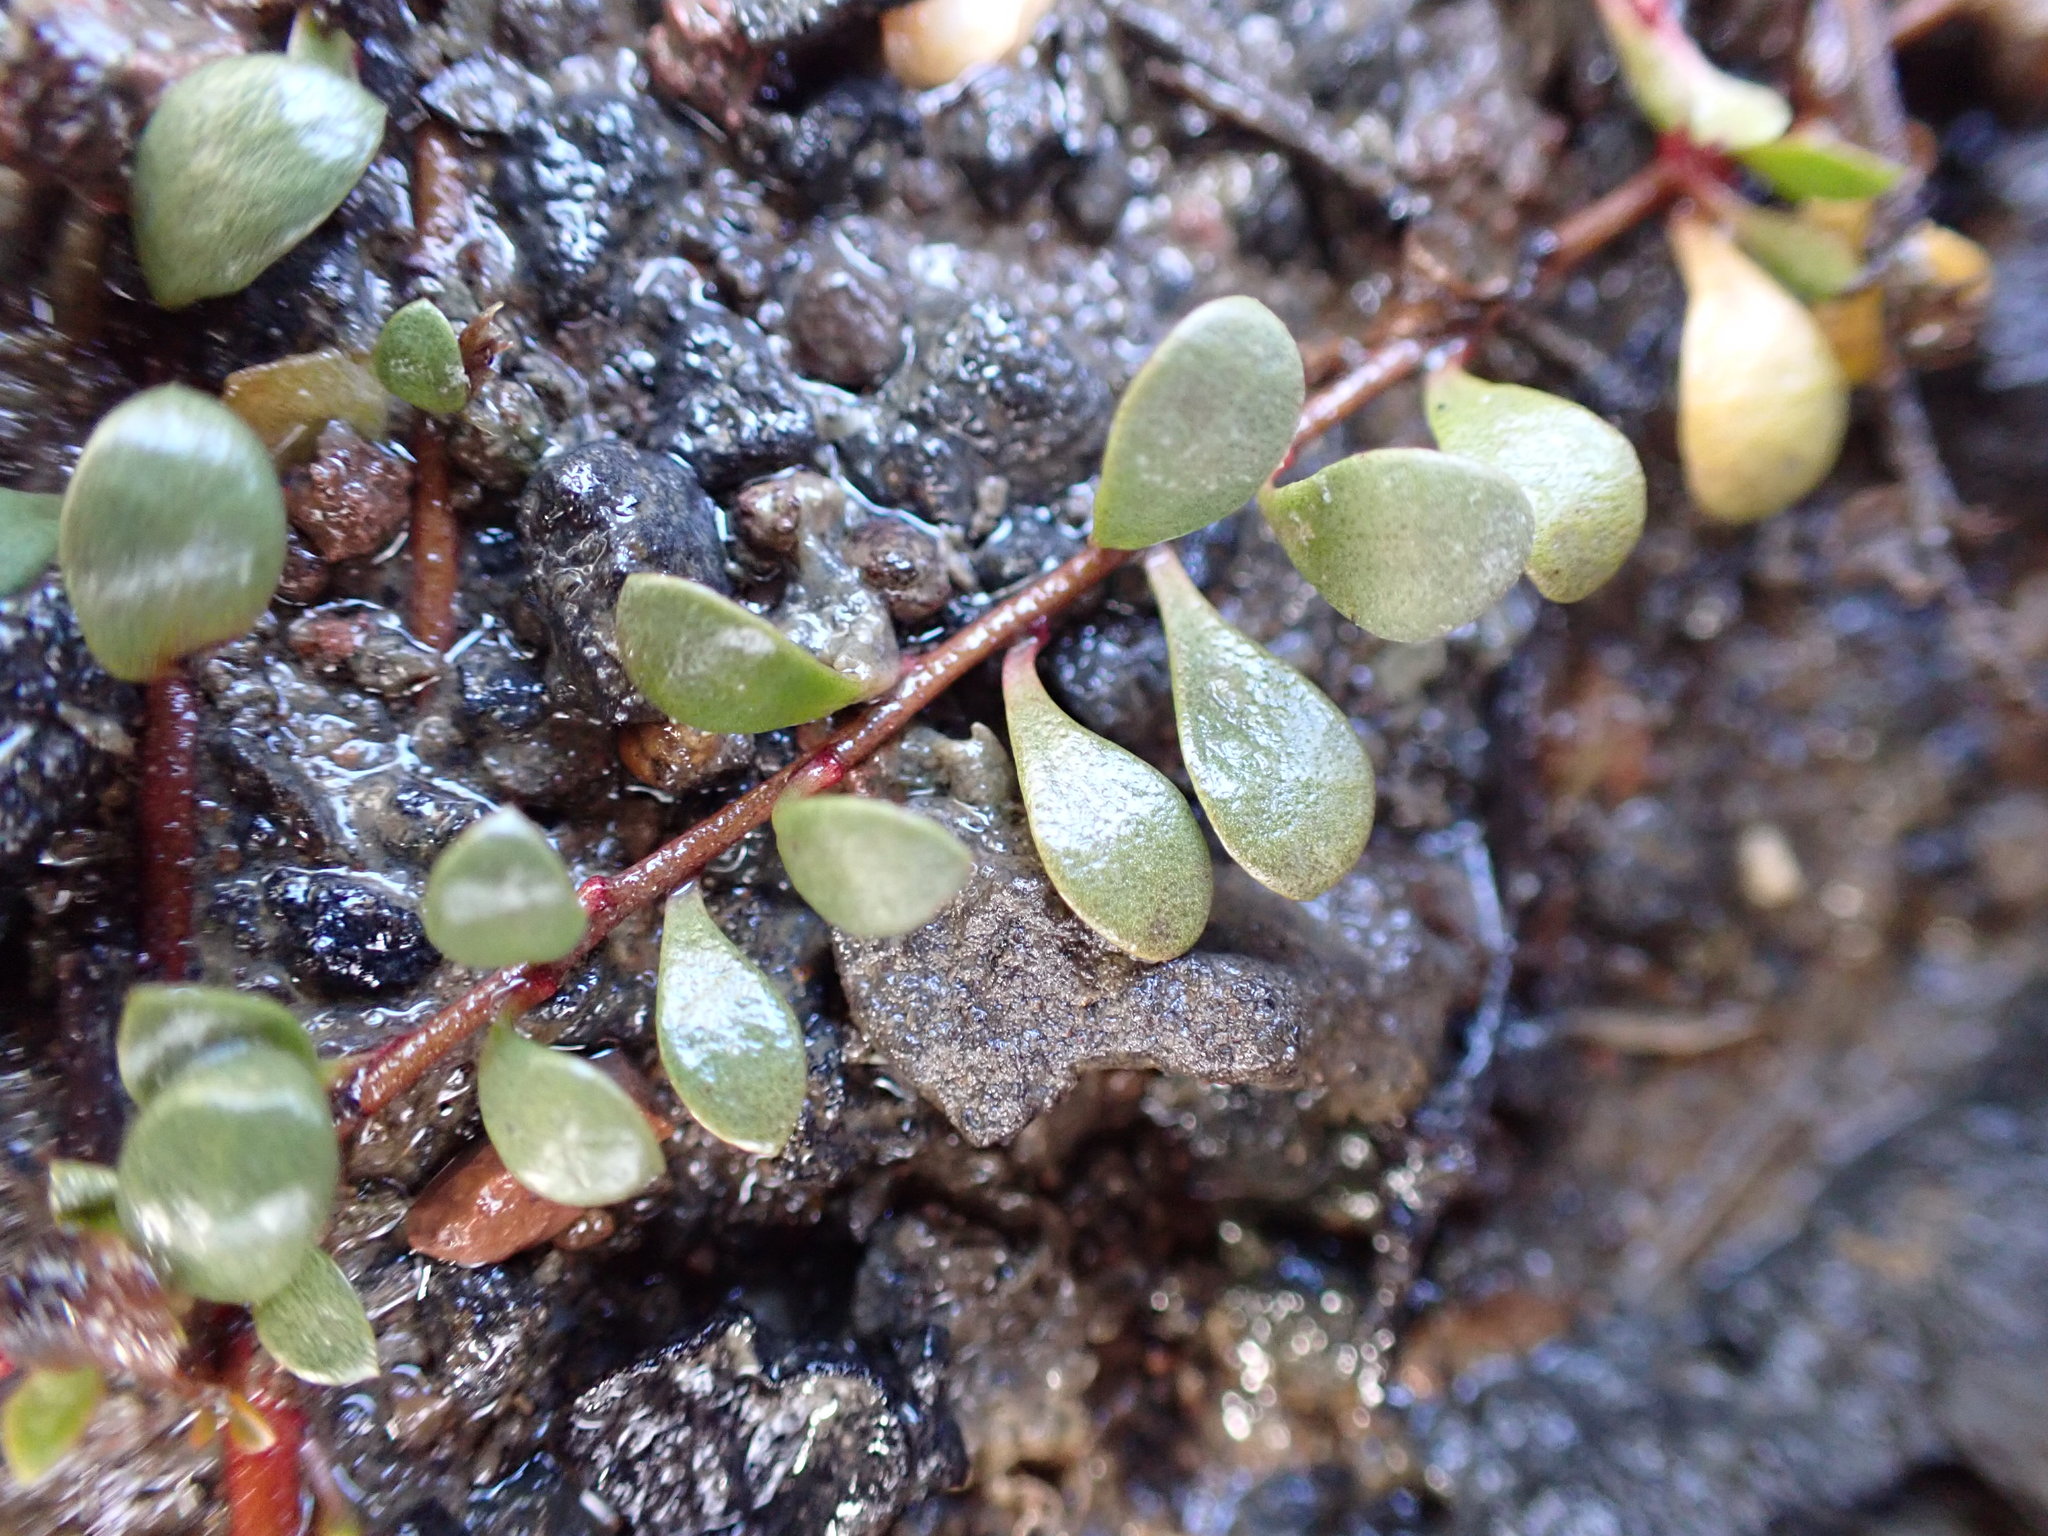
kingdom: Plantae
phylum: Tracheophyta
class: Magnoliopsida
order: Ericales
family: Primulaceae
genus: Samolus
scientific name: Samolus repens
